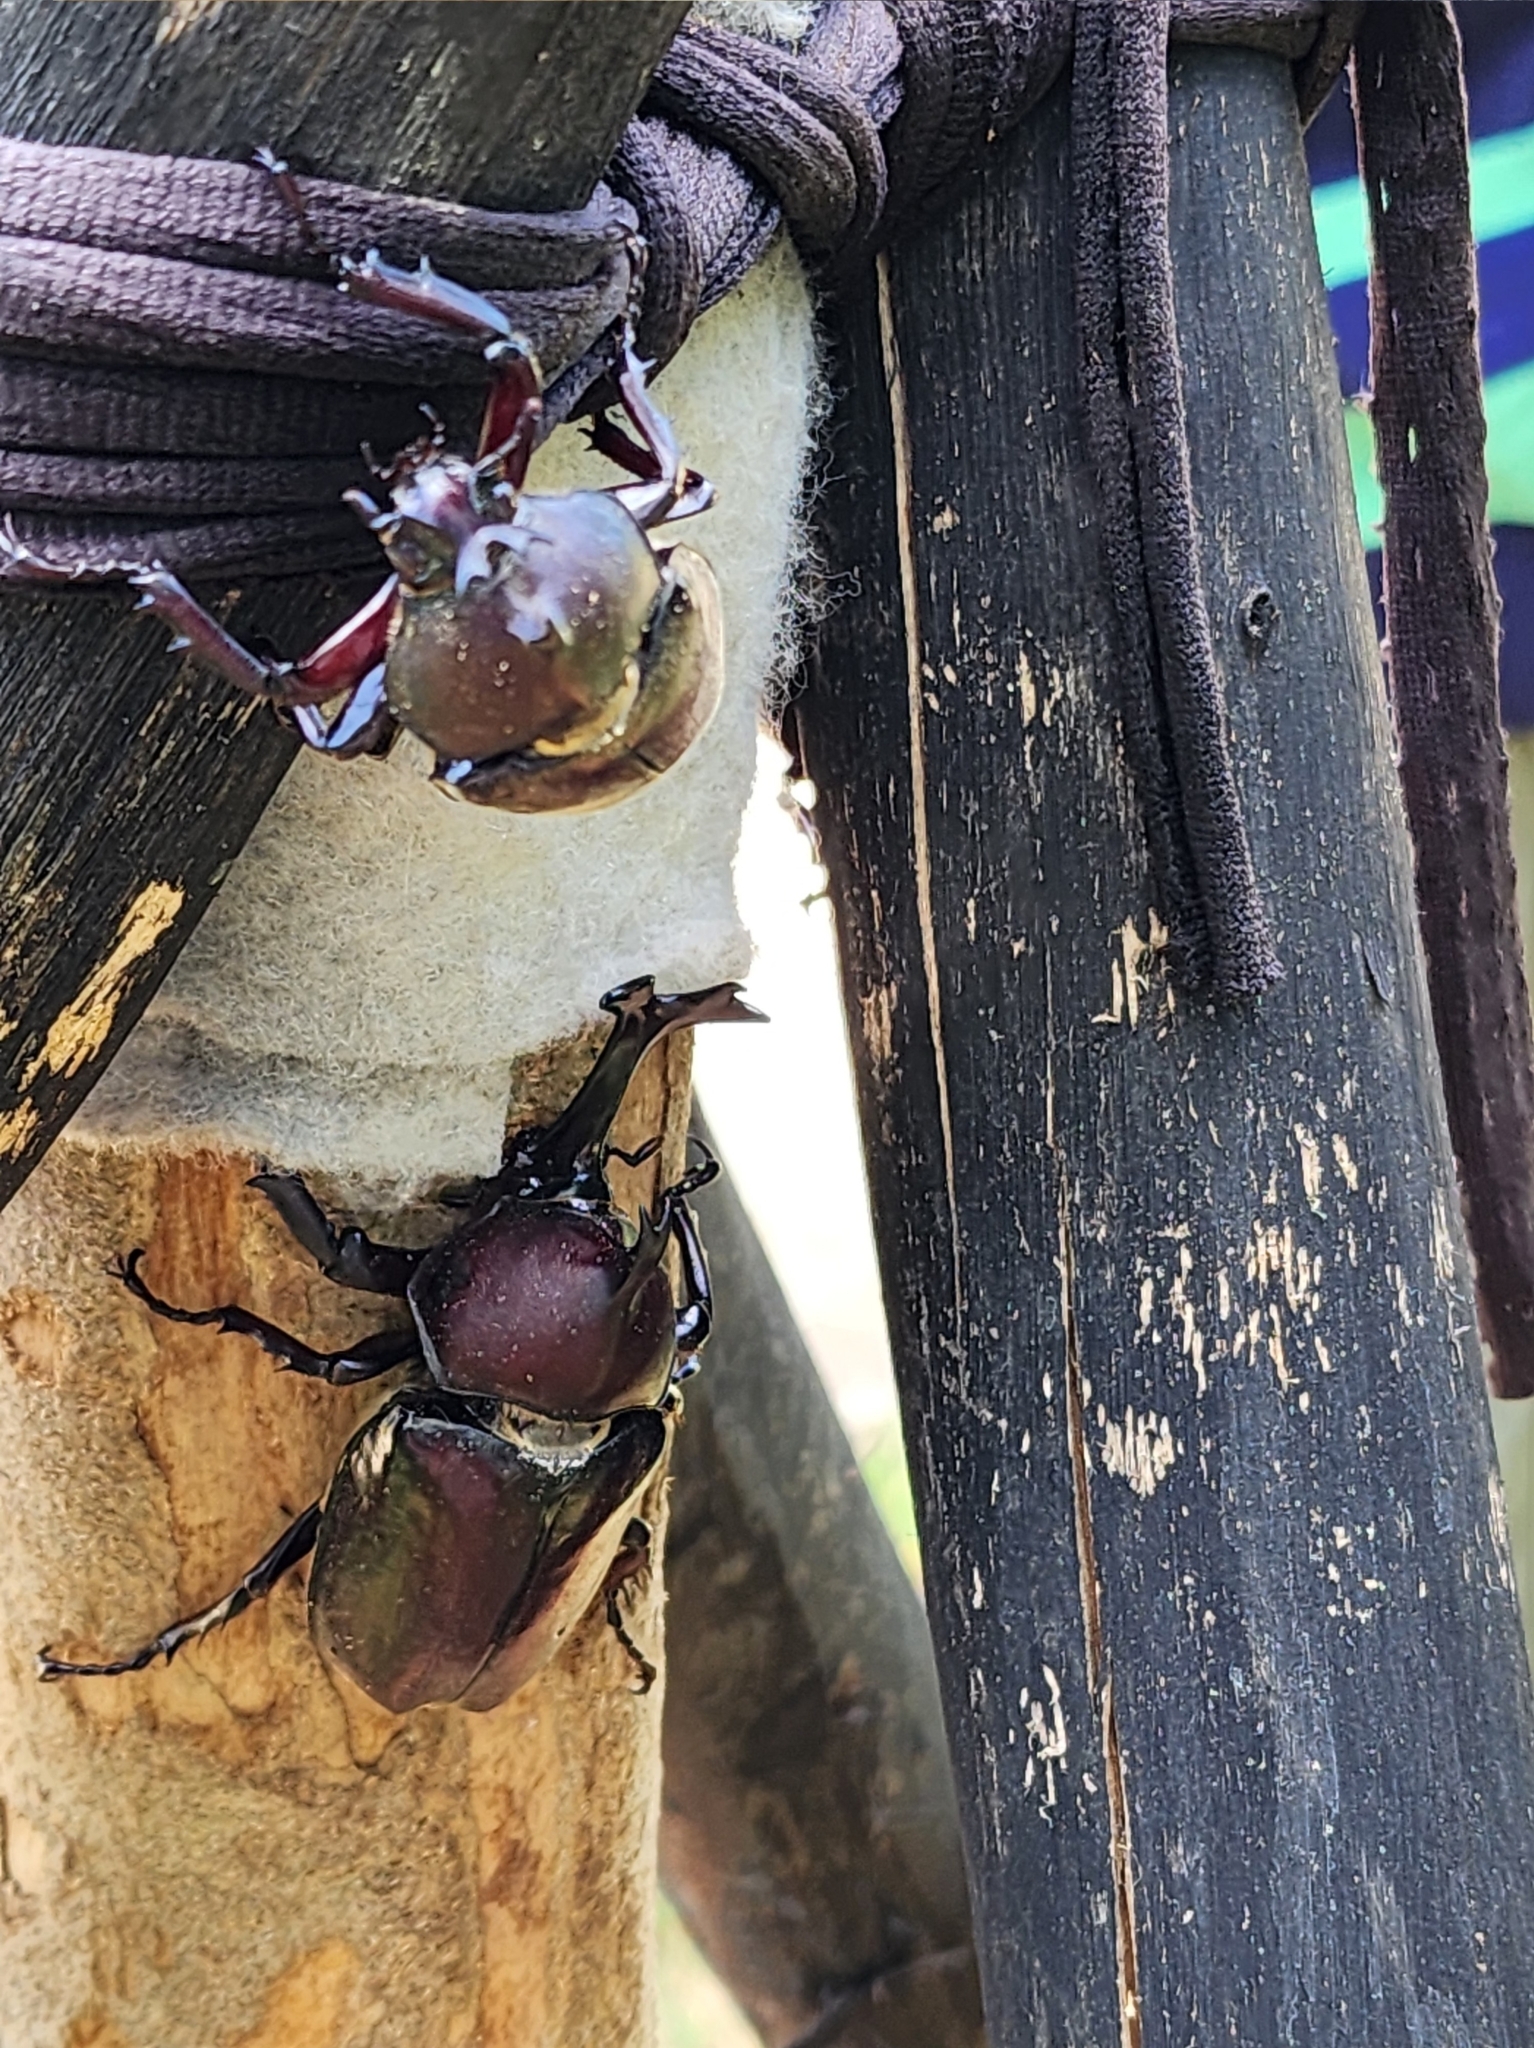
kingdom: Animalia
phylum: Arthropoda
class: Insecta
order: Coleoptera
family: Scarabaeidae
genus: Trypoxylus
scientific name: Trypoxylus dichotomus
